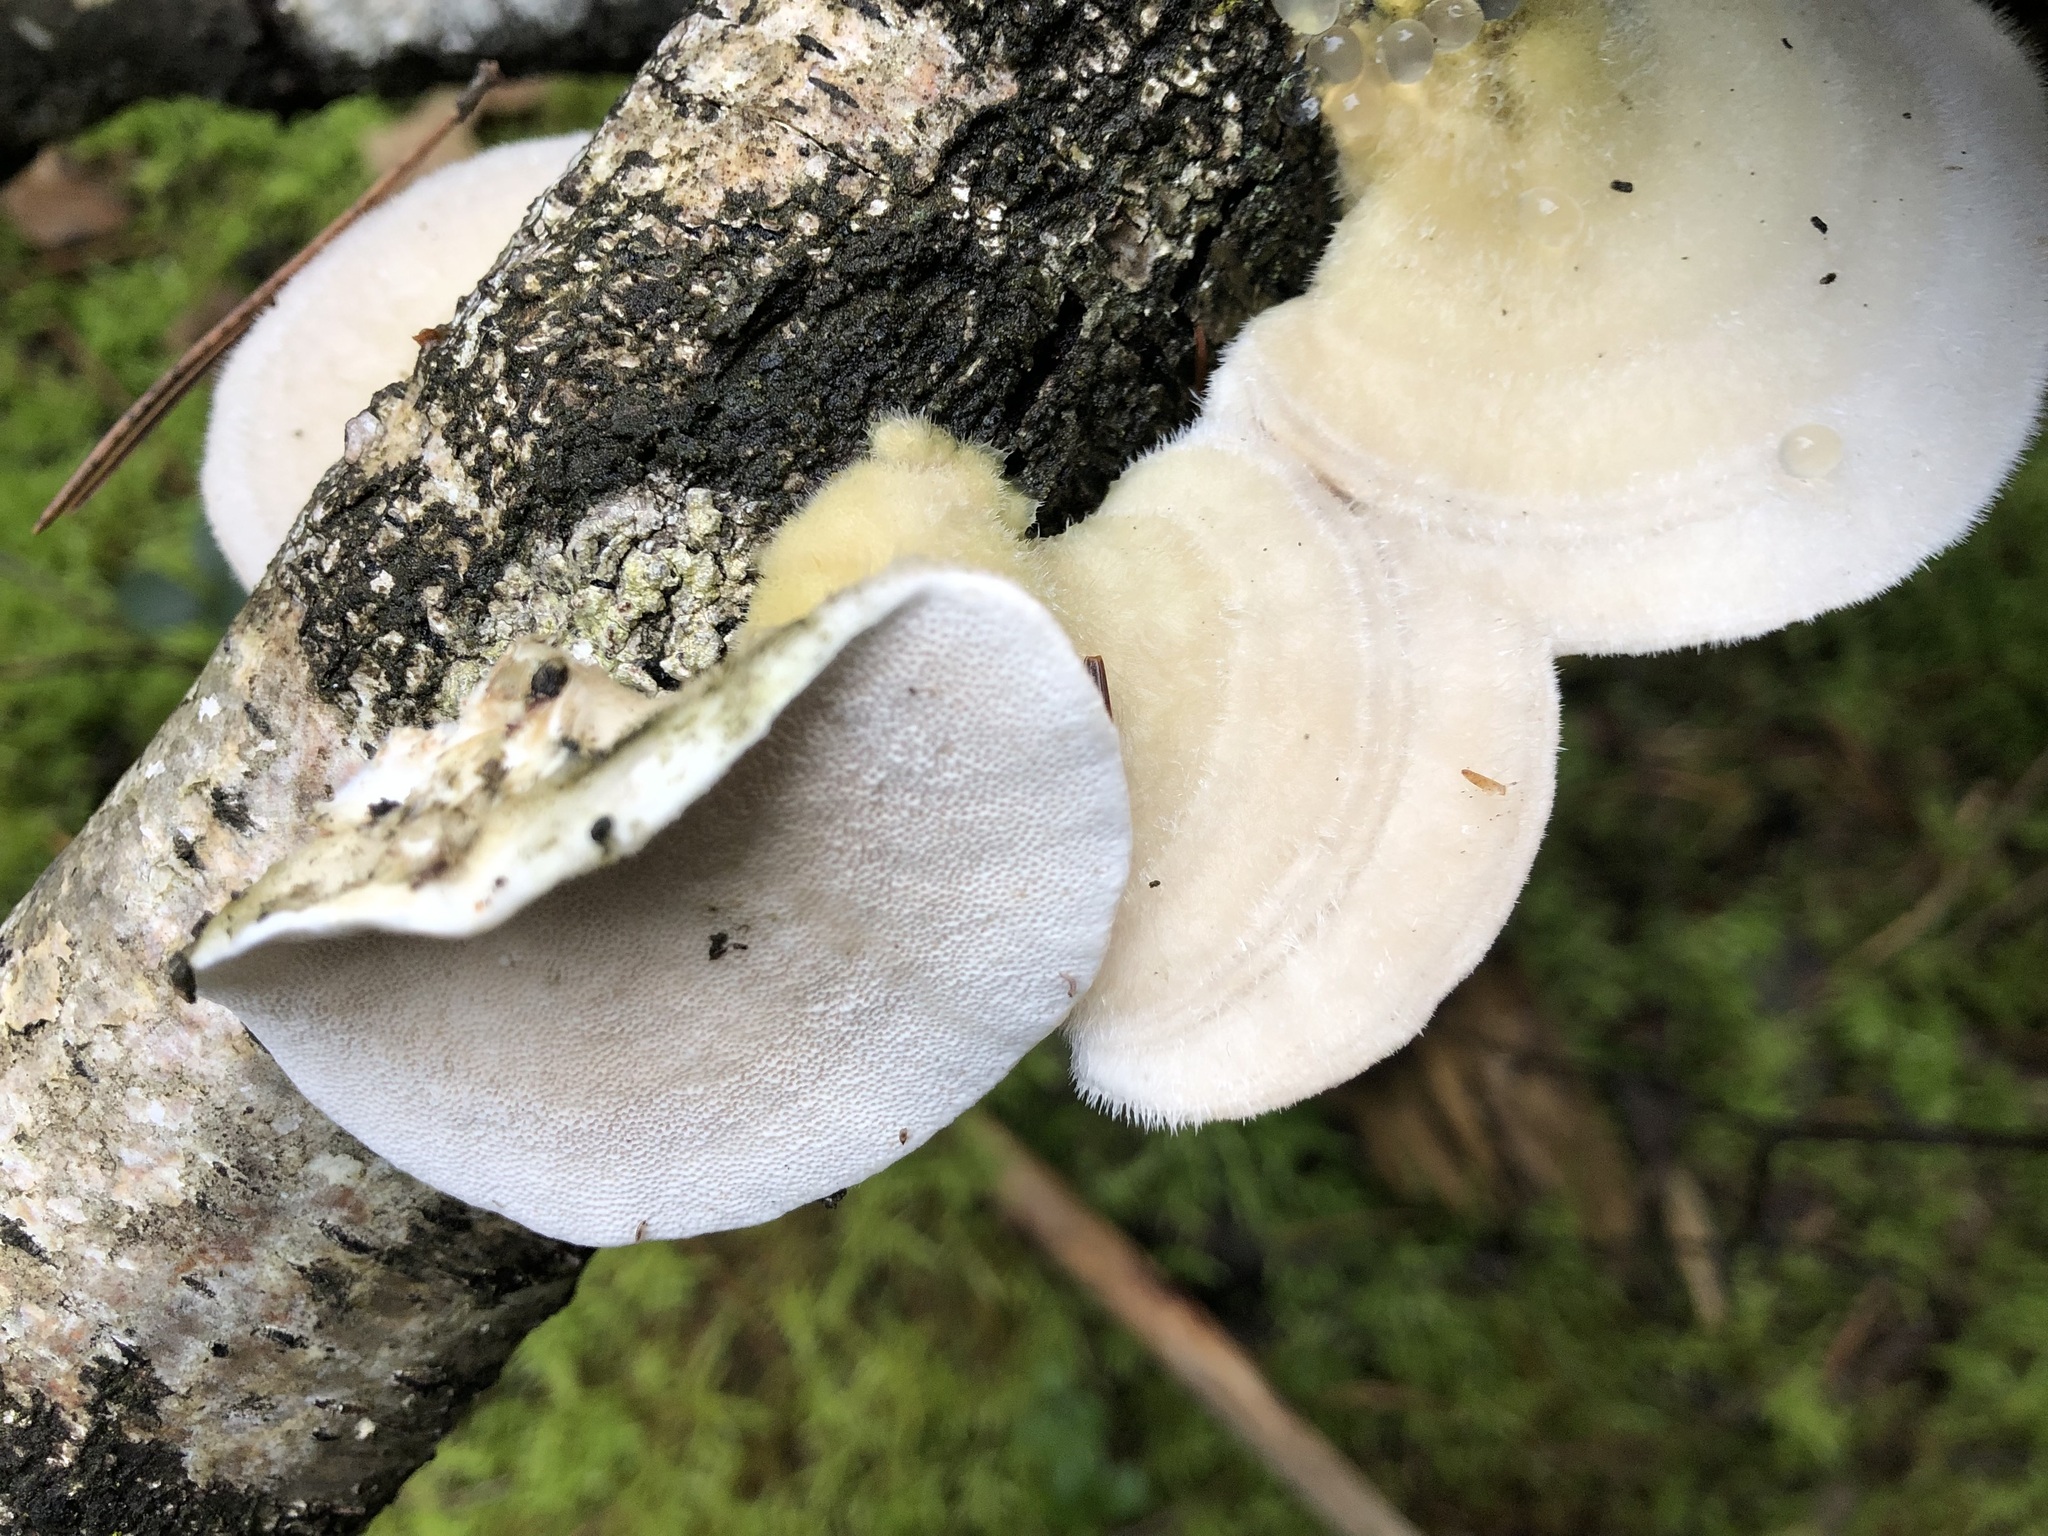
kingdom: Fungi
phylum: Basidiomycota
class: Agaricomycetes
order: Polyporales
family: Polyporaceae
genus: Trametes
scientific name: Trametes hirsuta
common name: Hairy bracket
